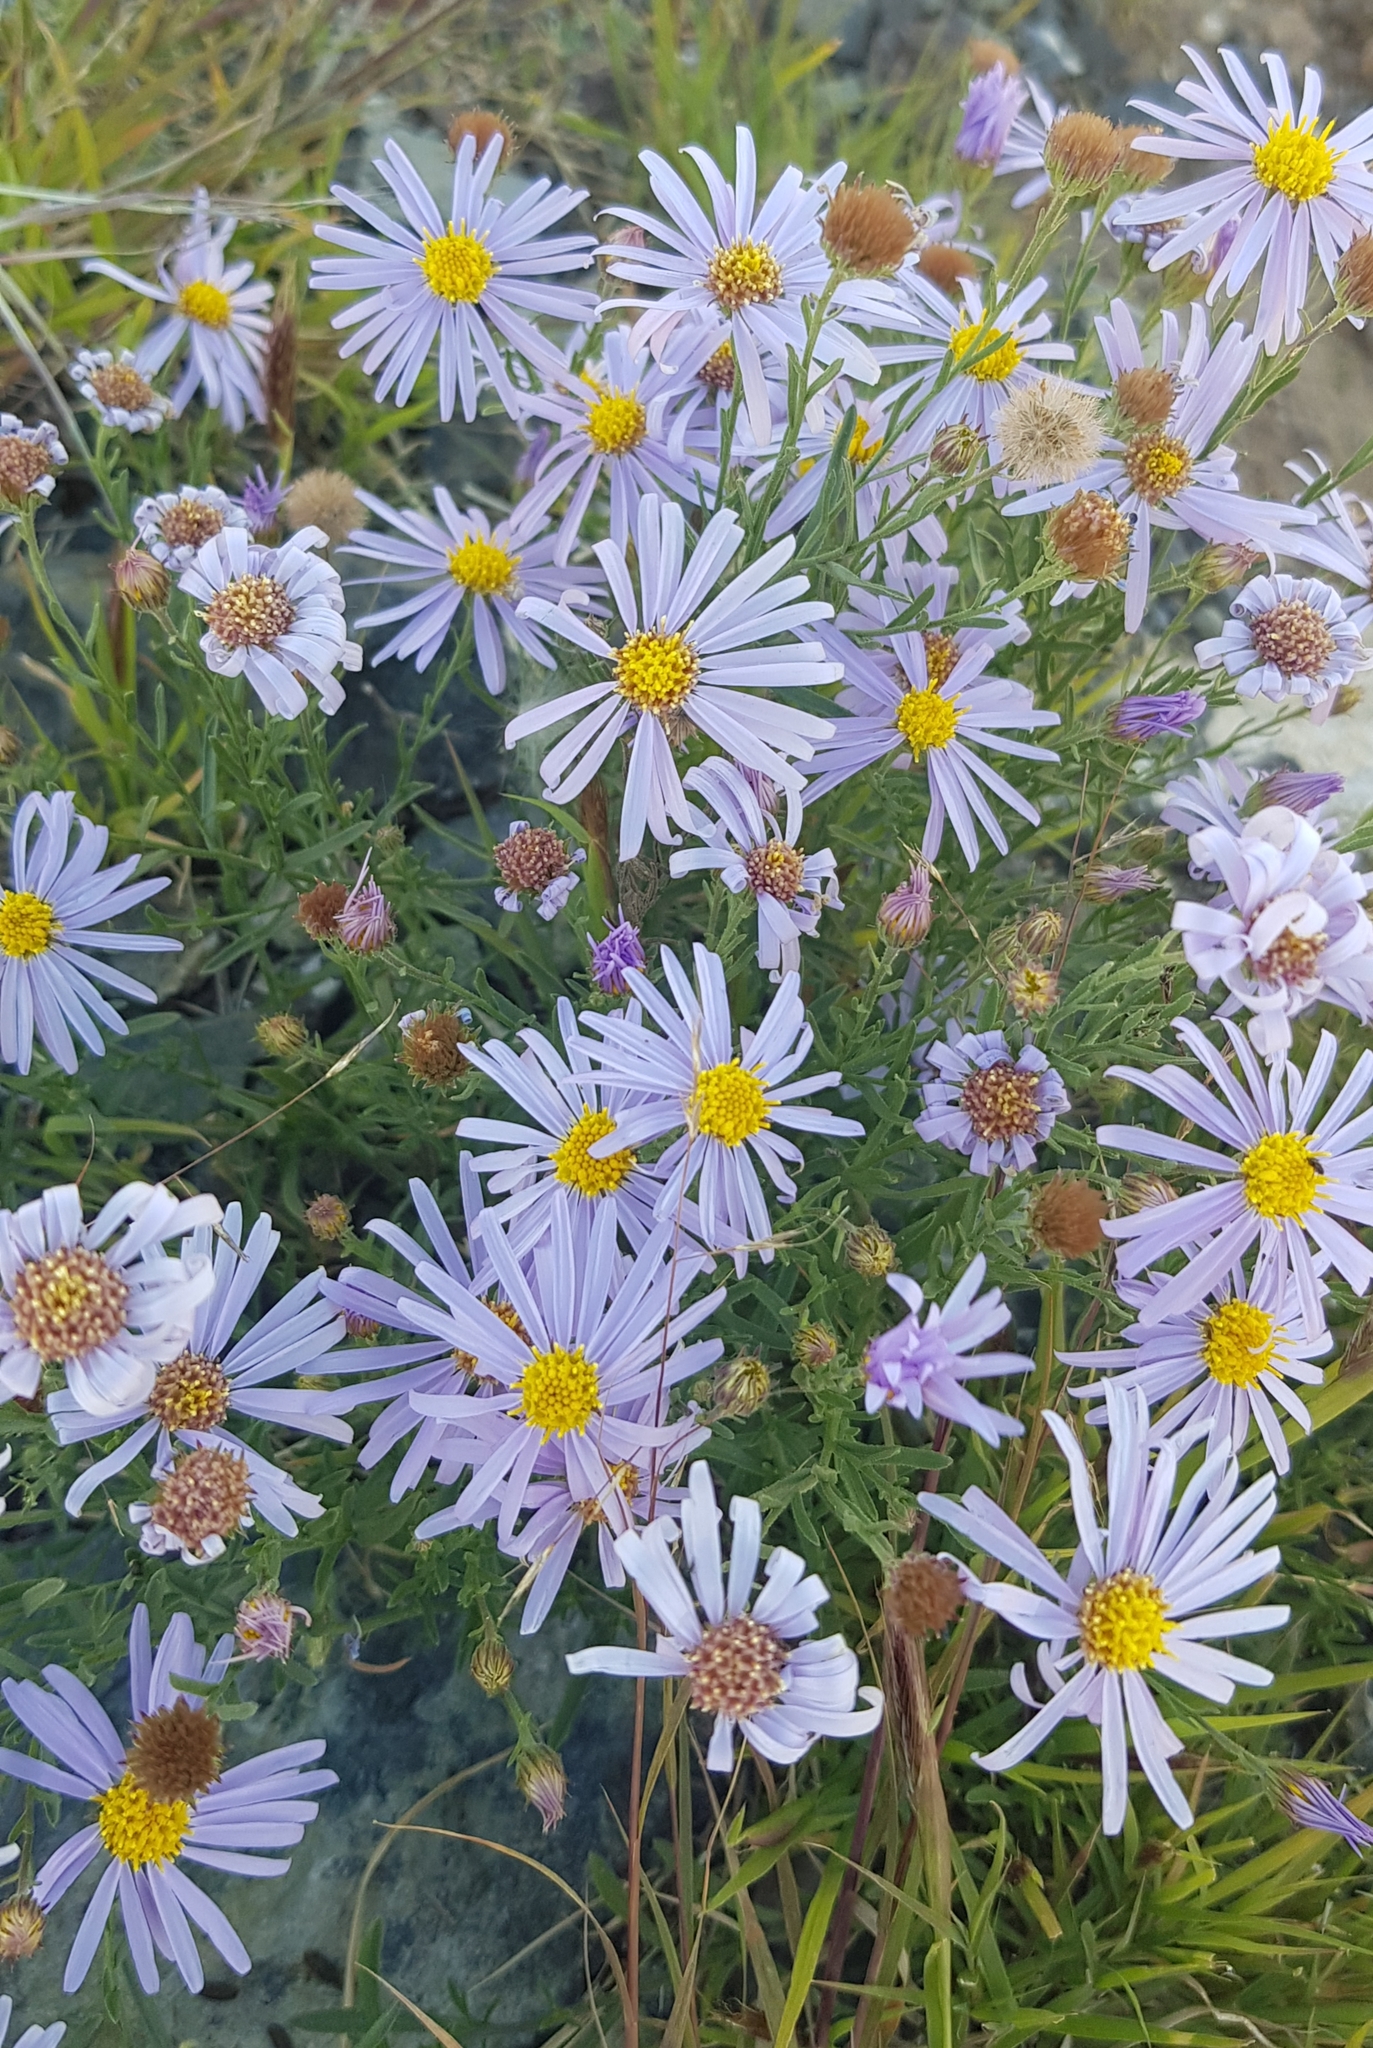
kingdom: Plantae
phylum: Tracheophyta
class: Magnoliopsida
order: Asterales
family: Asteraceae
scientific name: Asteraceae
